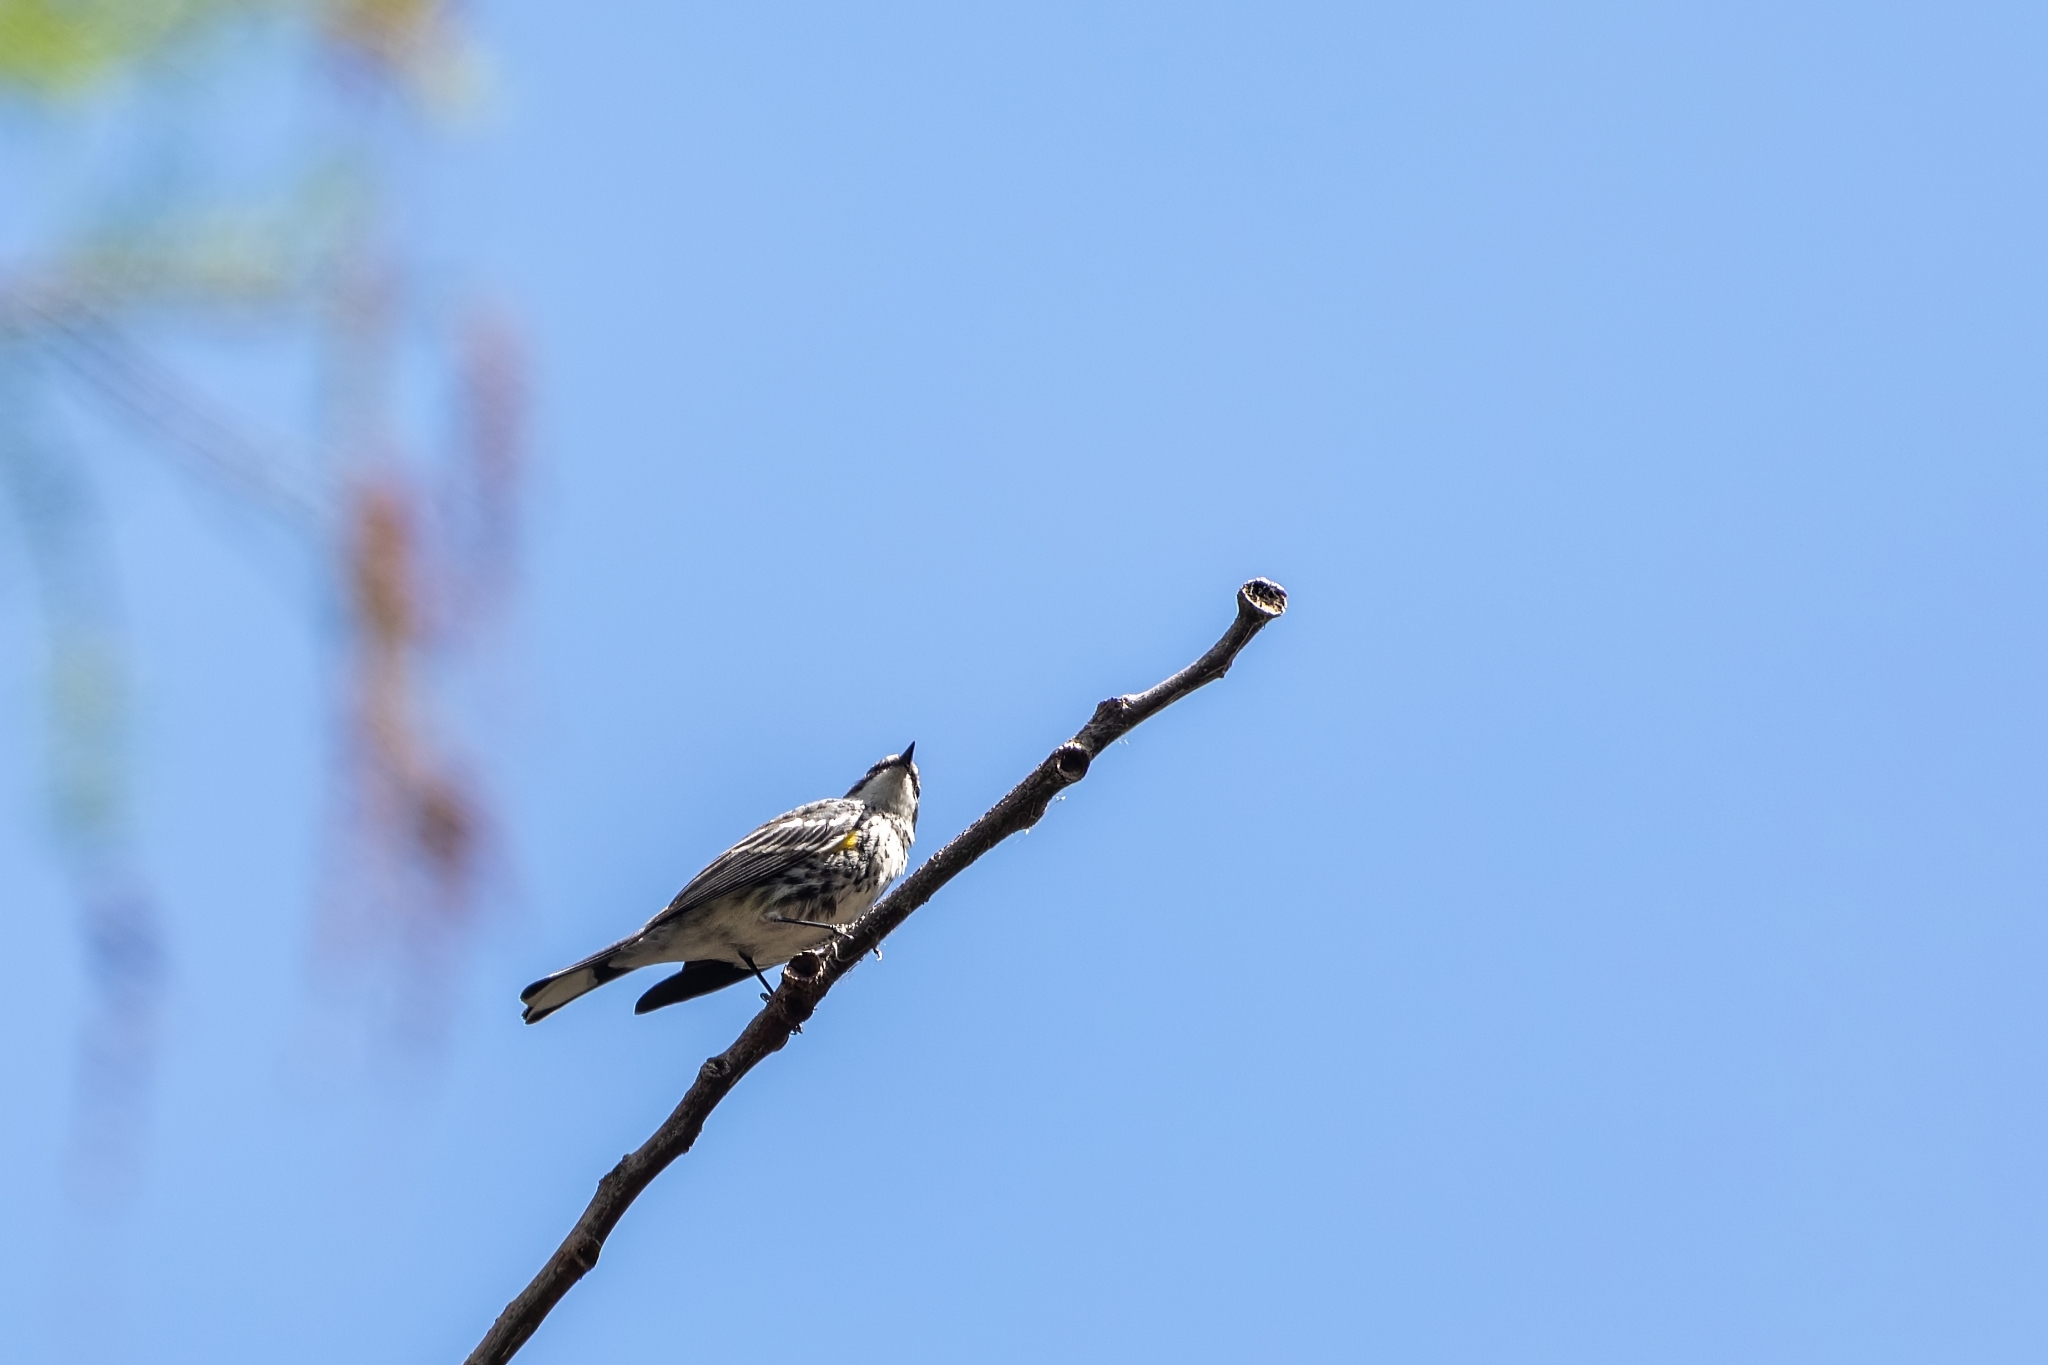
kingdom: Animalia
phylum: Chordata
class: Aves
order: Passeriformes
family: Parulidae
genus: Setophaga
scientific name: Setophaga coronata
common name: Myrtle warbler
